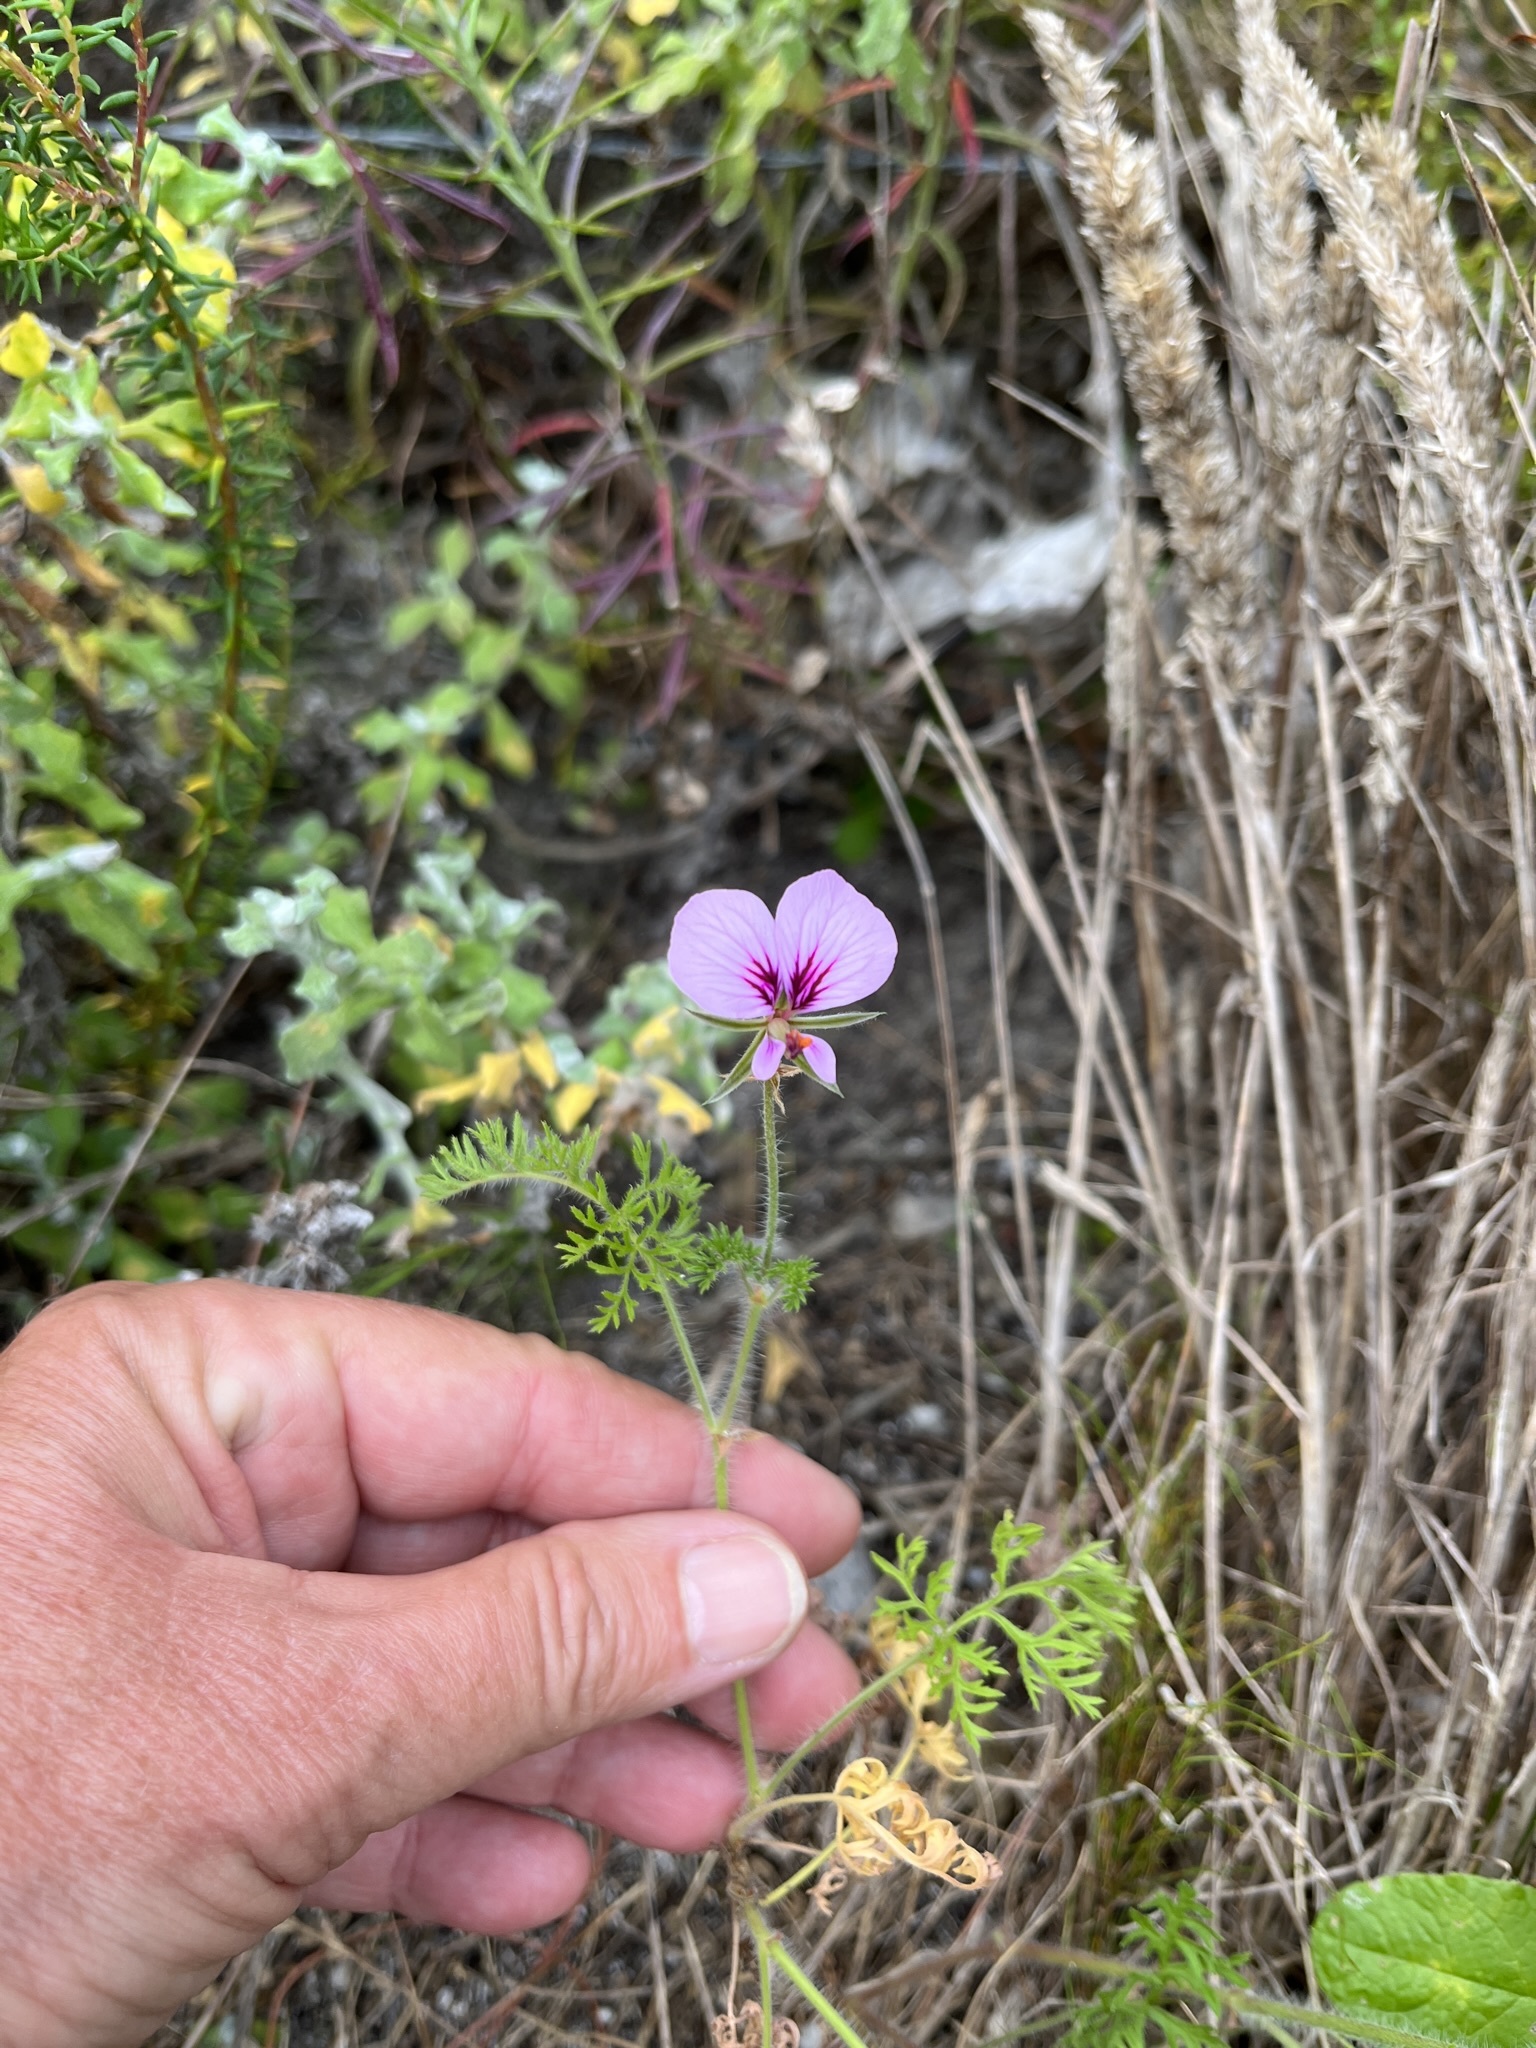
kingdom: Plantae
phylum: Tracheophyta
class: Magnoliopsida
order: Geraniales
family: Geraniaceae
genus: Pelargonium
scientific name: Pelargonium myrrhifolium
